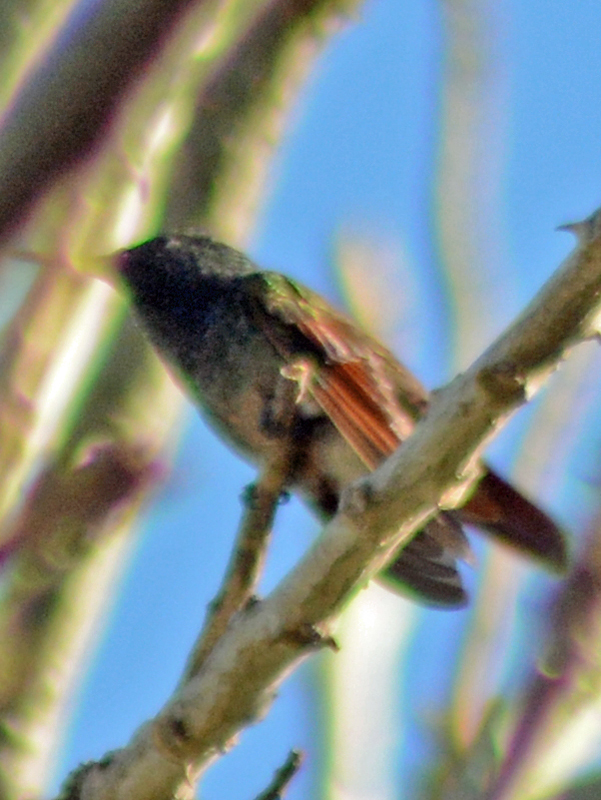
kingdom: Animalia
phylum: Chordata
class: Aves
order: Apodiformes
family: Trochilidae
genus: Saucerottia
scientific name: Saucerottia beryllina
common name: Berylline hummingbird
